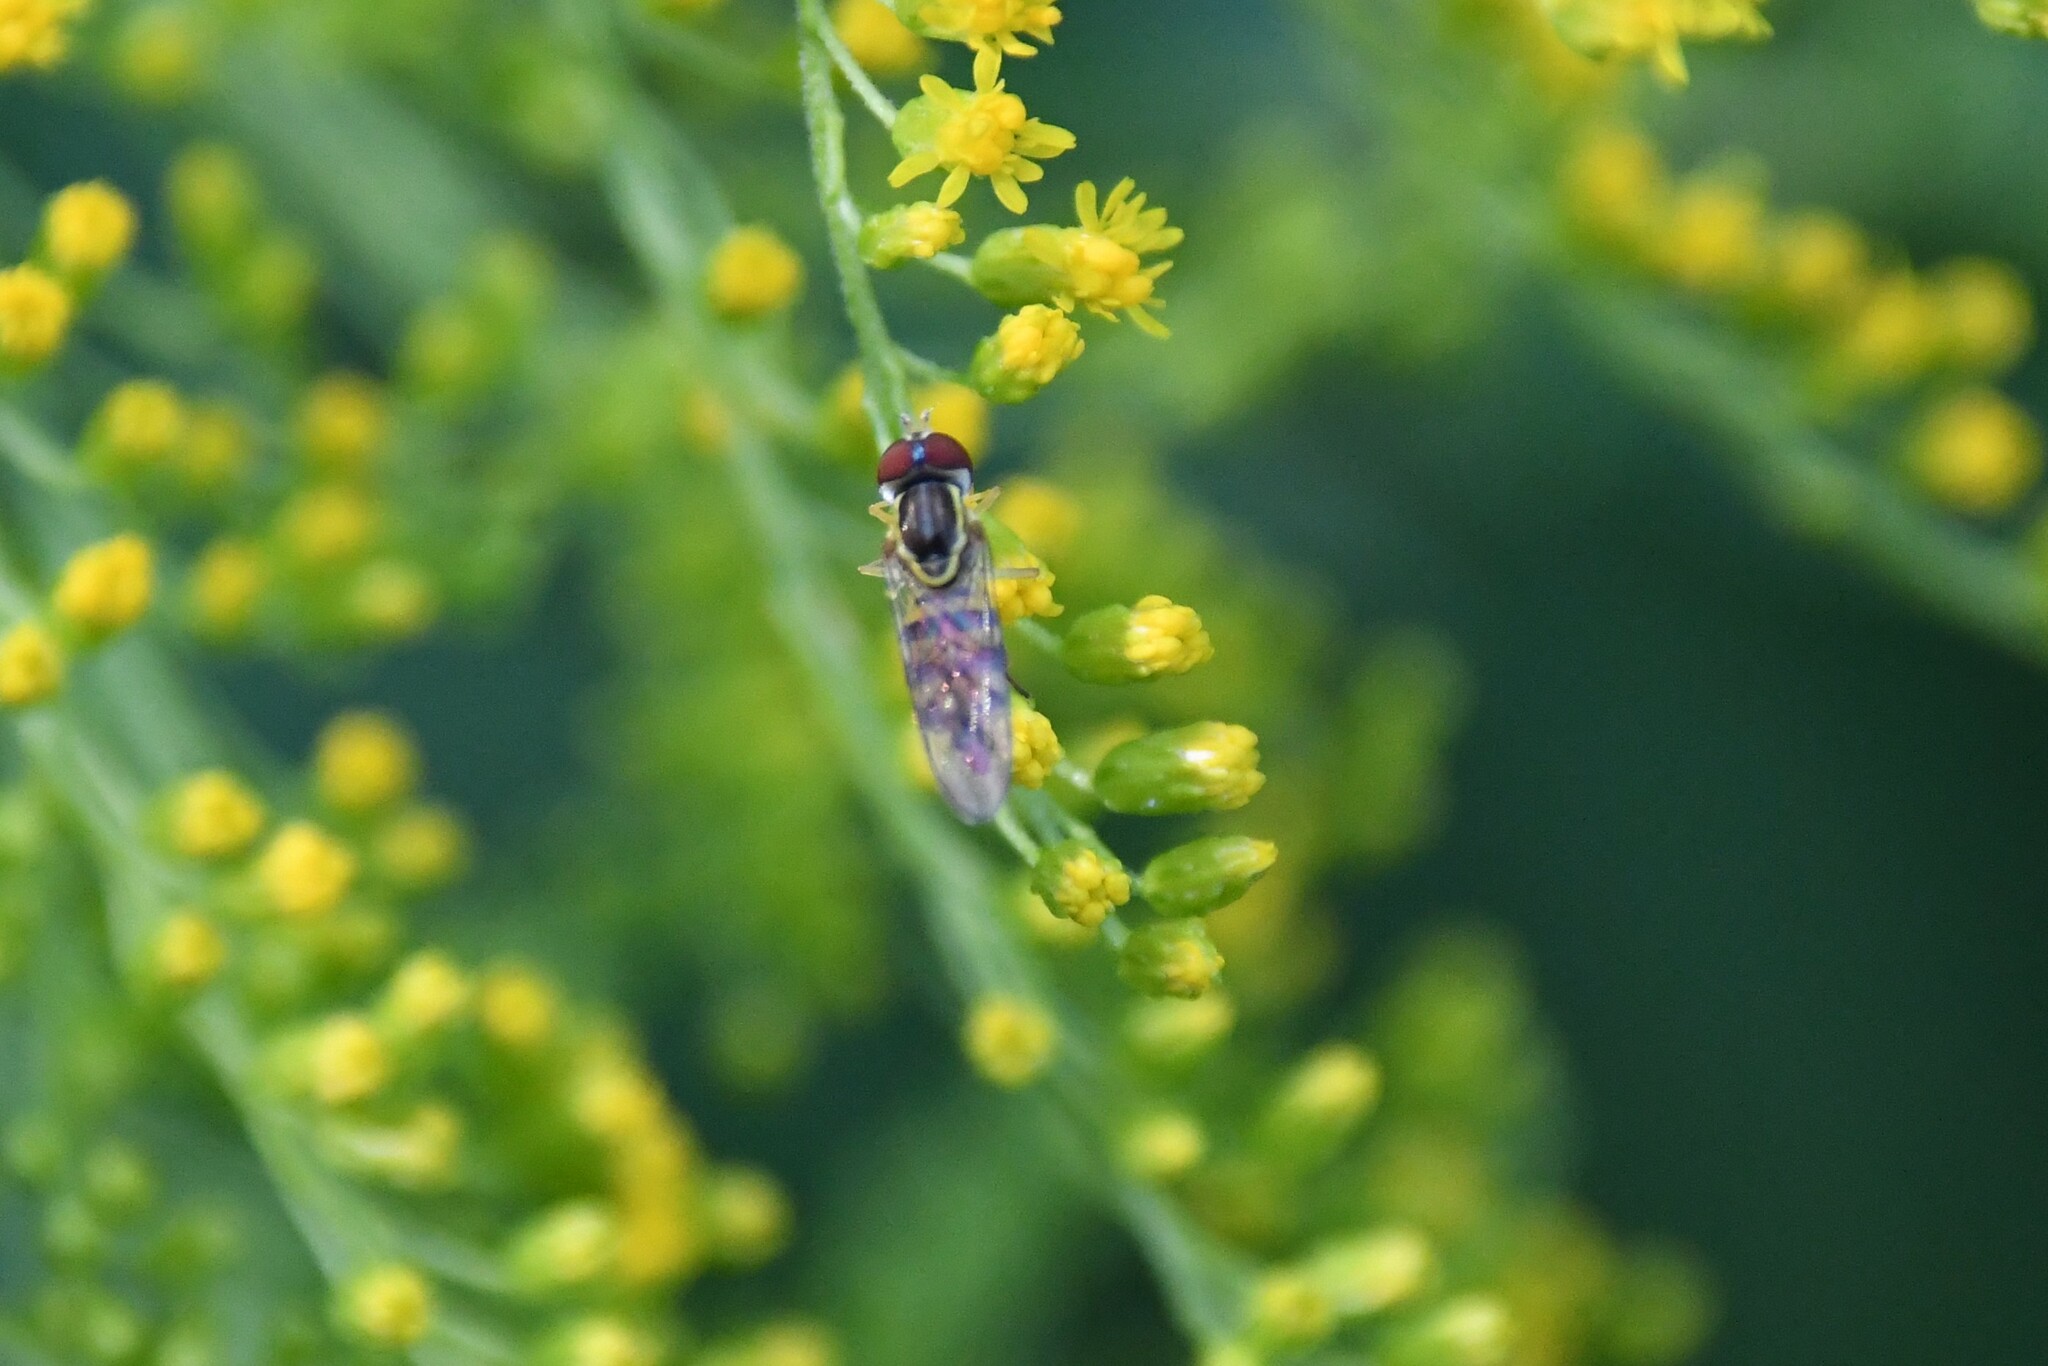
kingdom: Animalia
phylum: Arthropoda
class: Insecta
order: Diptera
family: Syrphidae
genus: Toxomerus
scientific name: Toxomerus geminatus
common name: Eastern calligrapher
